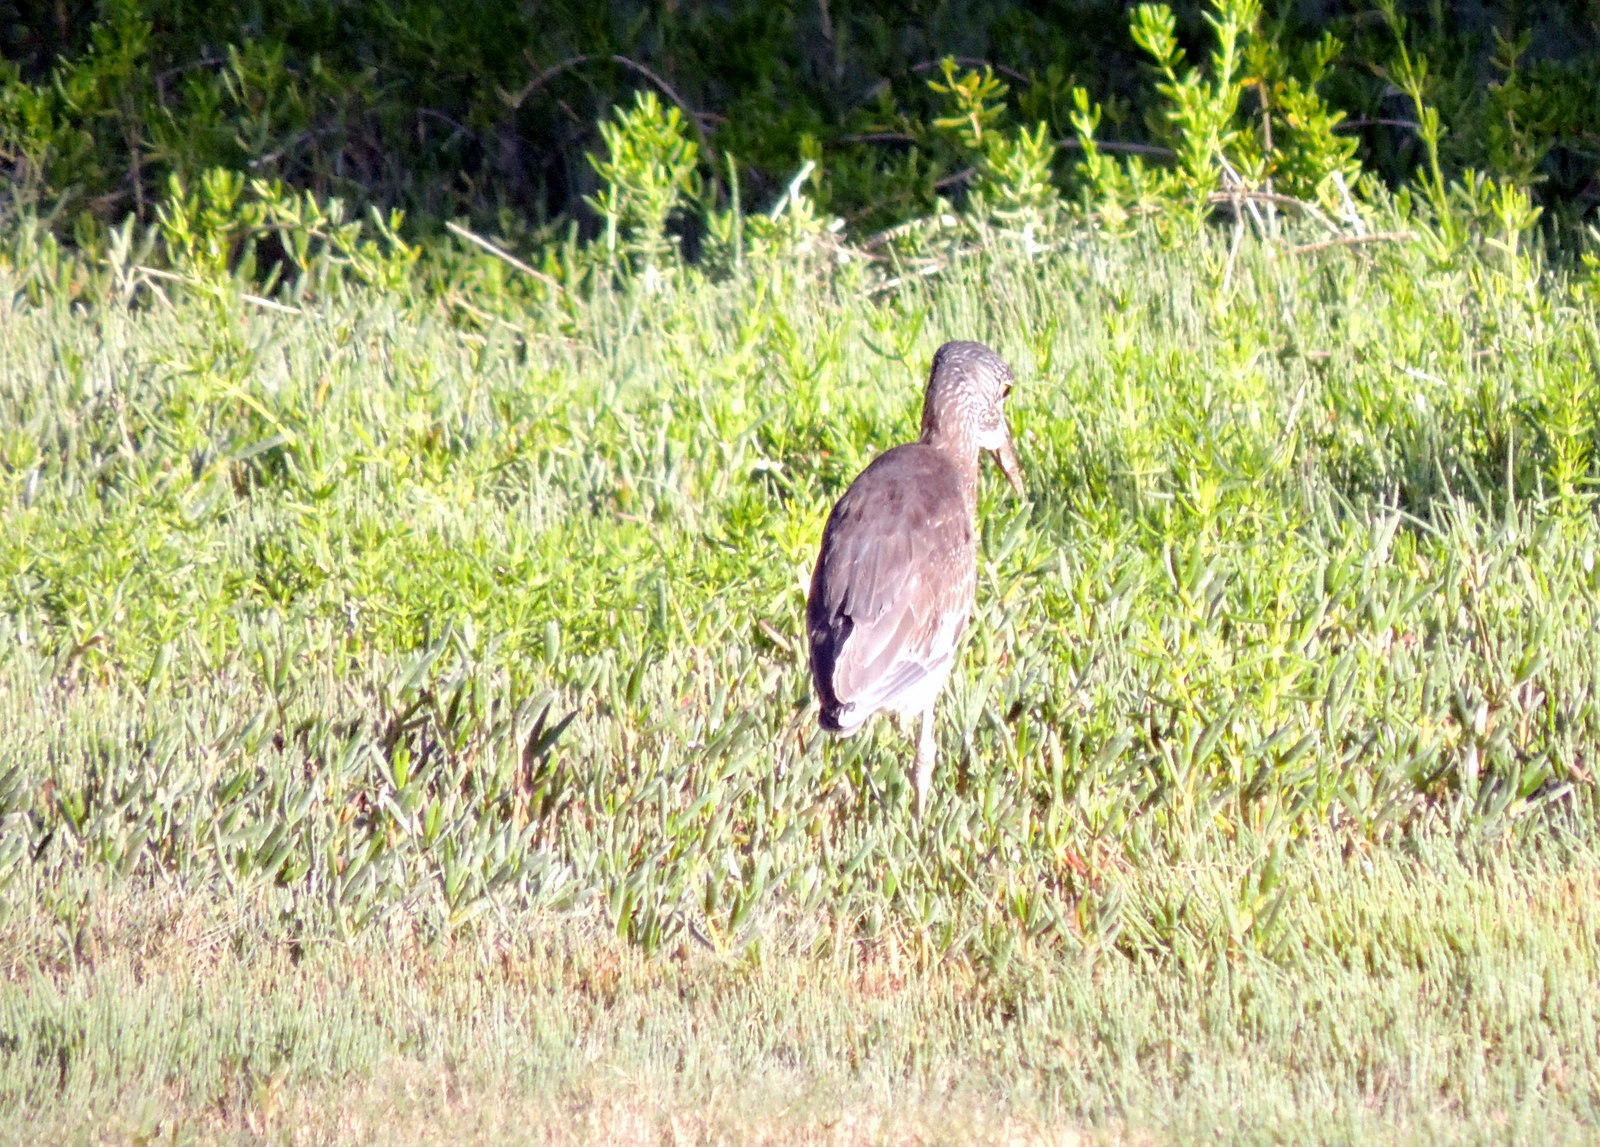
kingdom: Animalia
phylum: Chordata
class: Aves
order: Pelecaniformes
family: Ardeidae
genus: Nyctanassa
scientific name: Nyctanassa violacea
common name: Yellow-crowned night heron
